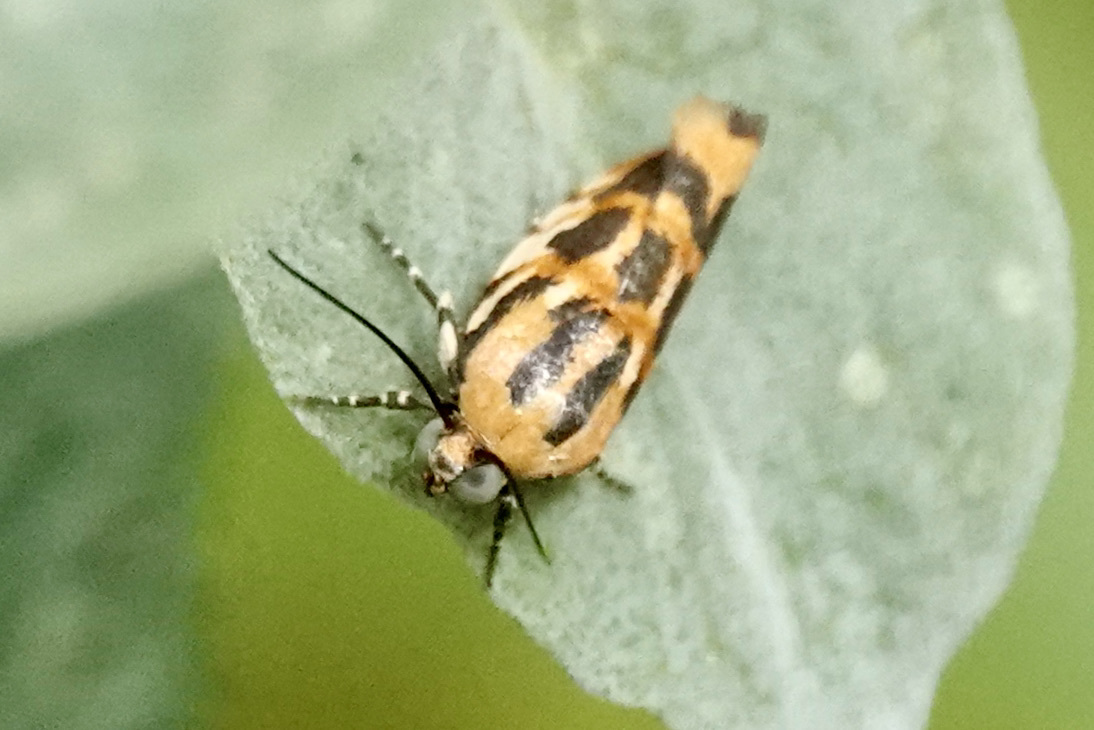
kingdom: Animalia
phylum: Arthropoda
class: Insecta
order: Lepidoptera
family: Noctuidae
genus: Acontia
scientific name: Acontia leo
